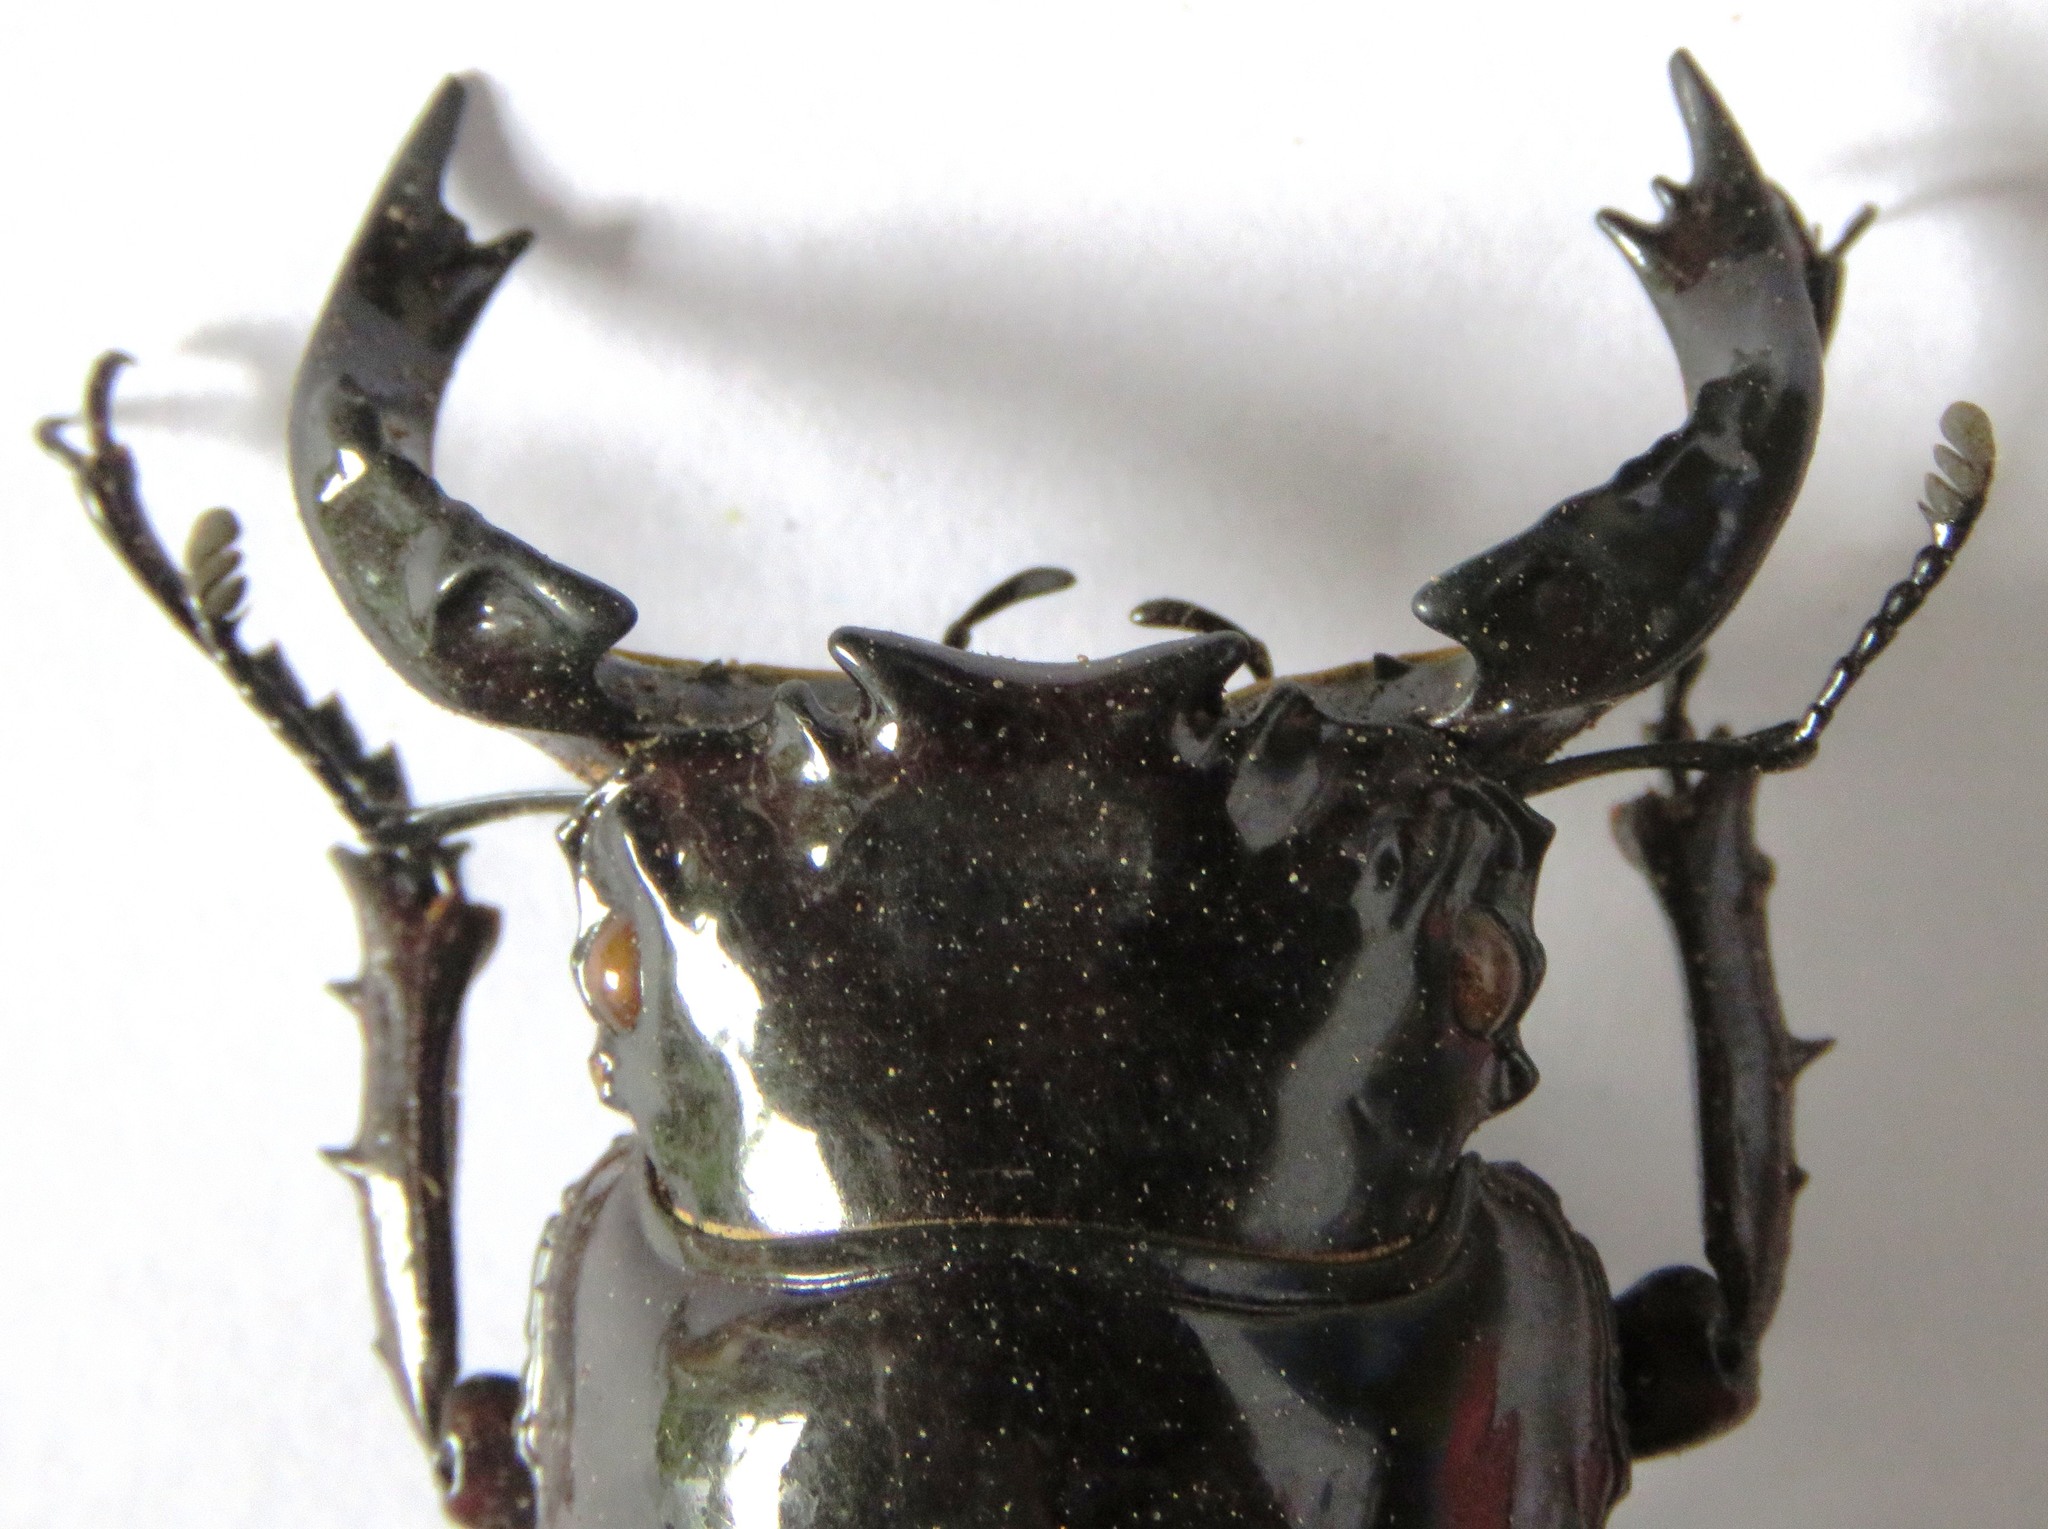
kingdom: Animalia
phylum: Arthropoda
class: Insecta
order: Coleoptera
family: Lucanidae
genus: Mesotopus
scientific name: Mesotopus tarandus
